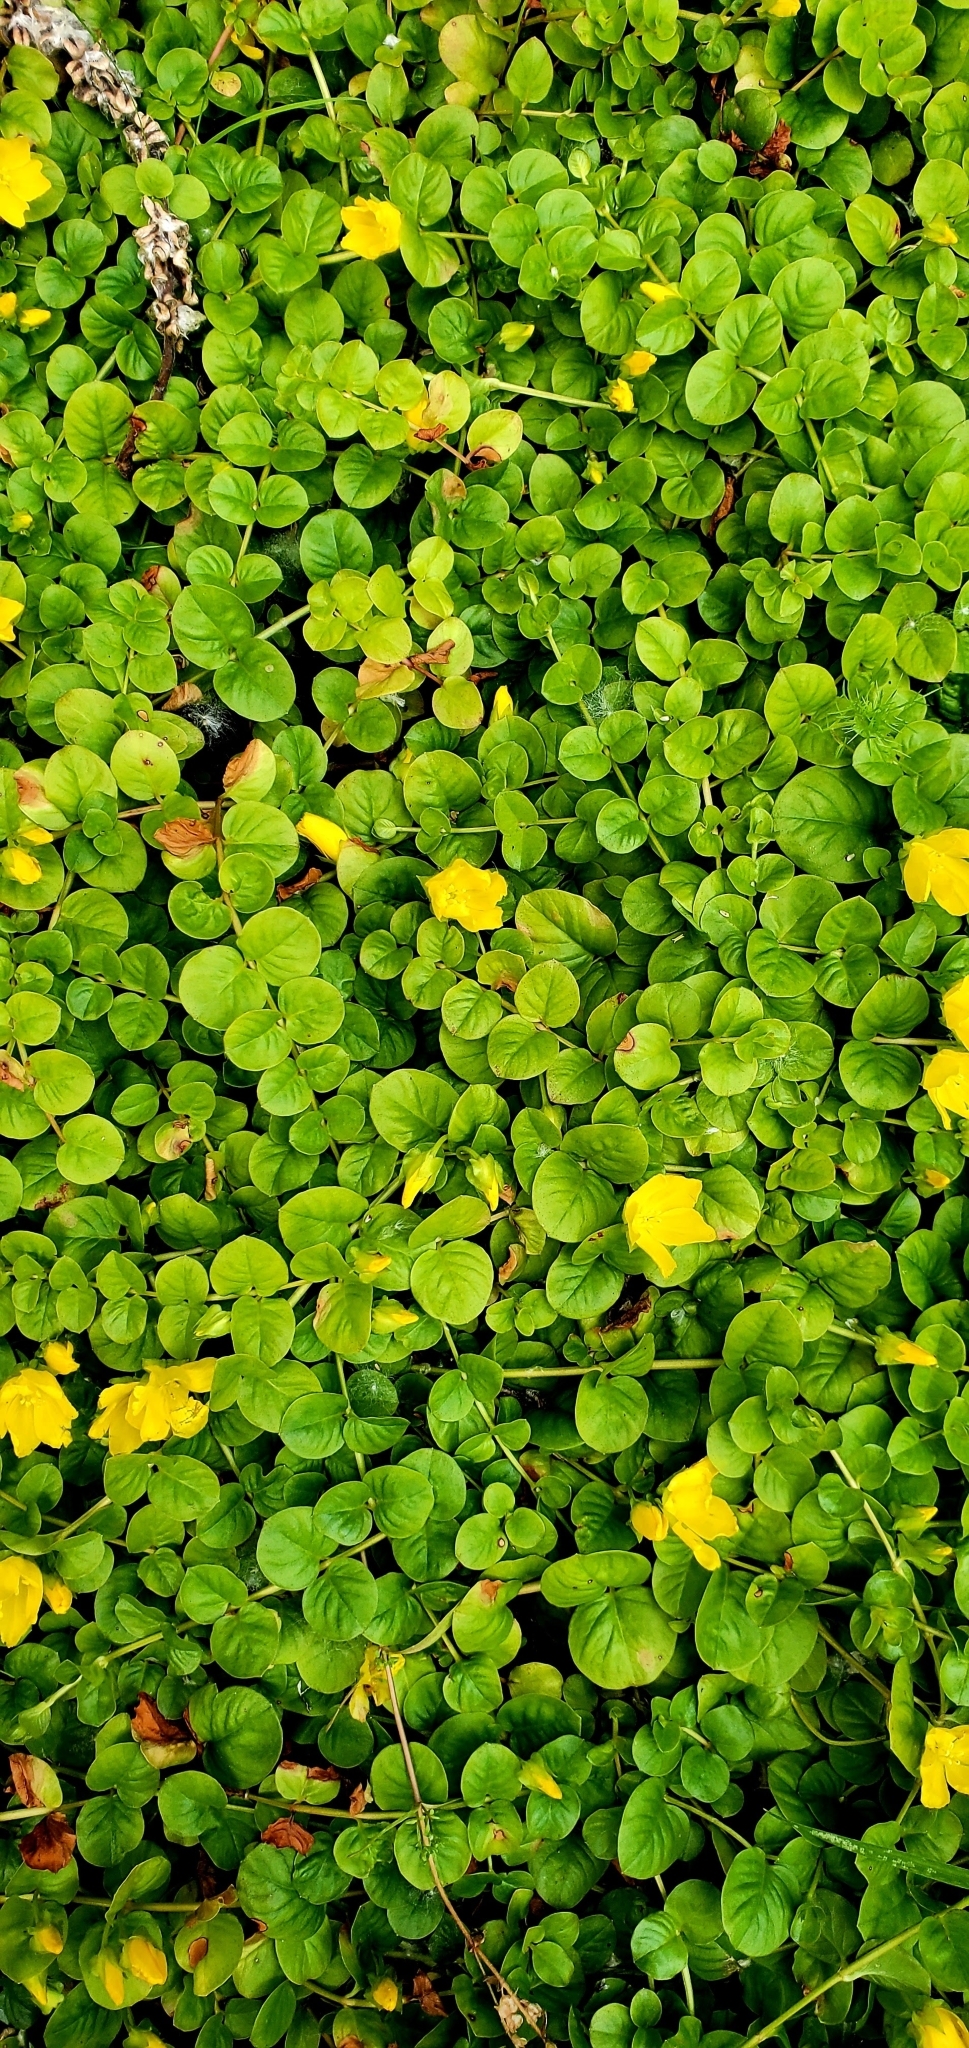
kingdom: Plantae
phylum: Tracheophyta
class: Magnoliopsida
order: Ericales
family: Primulaceae
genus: Lysimachia
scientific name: Lysimachia nummularia
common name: Moneywort
